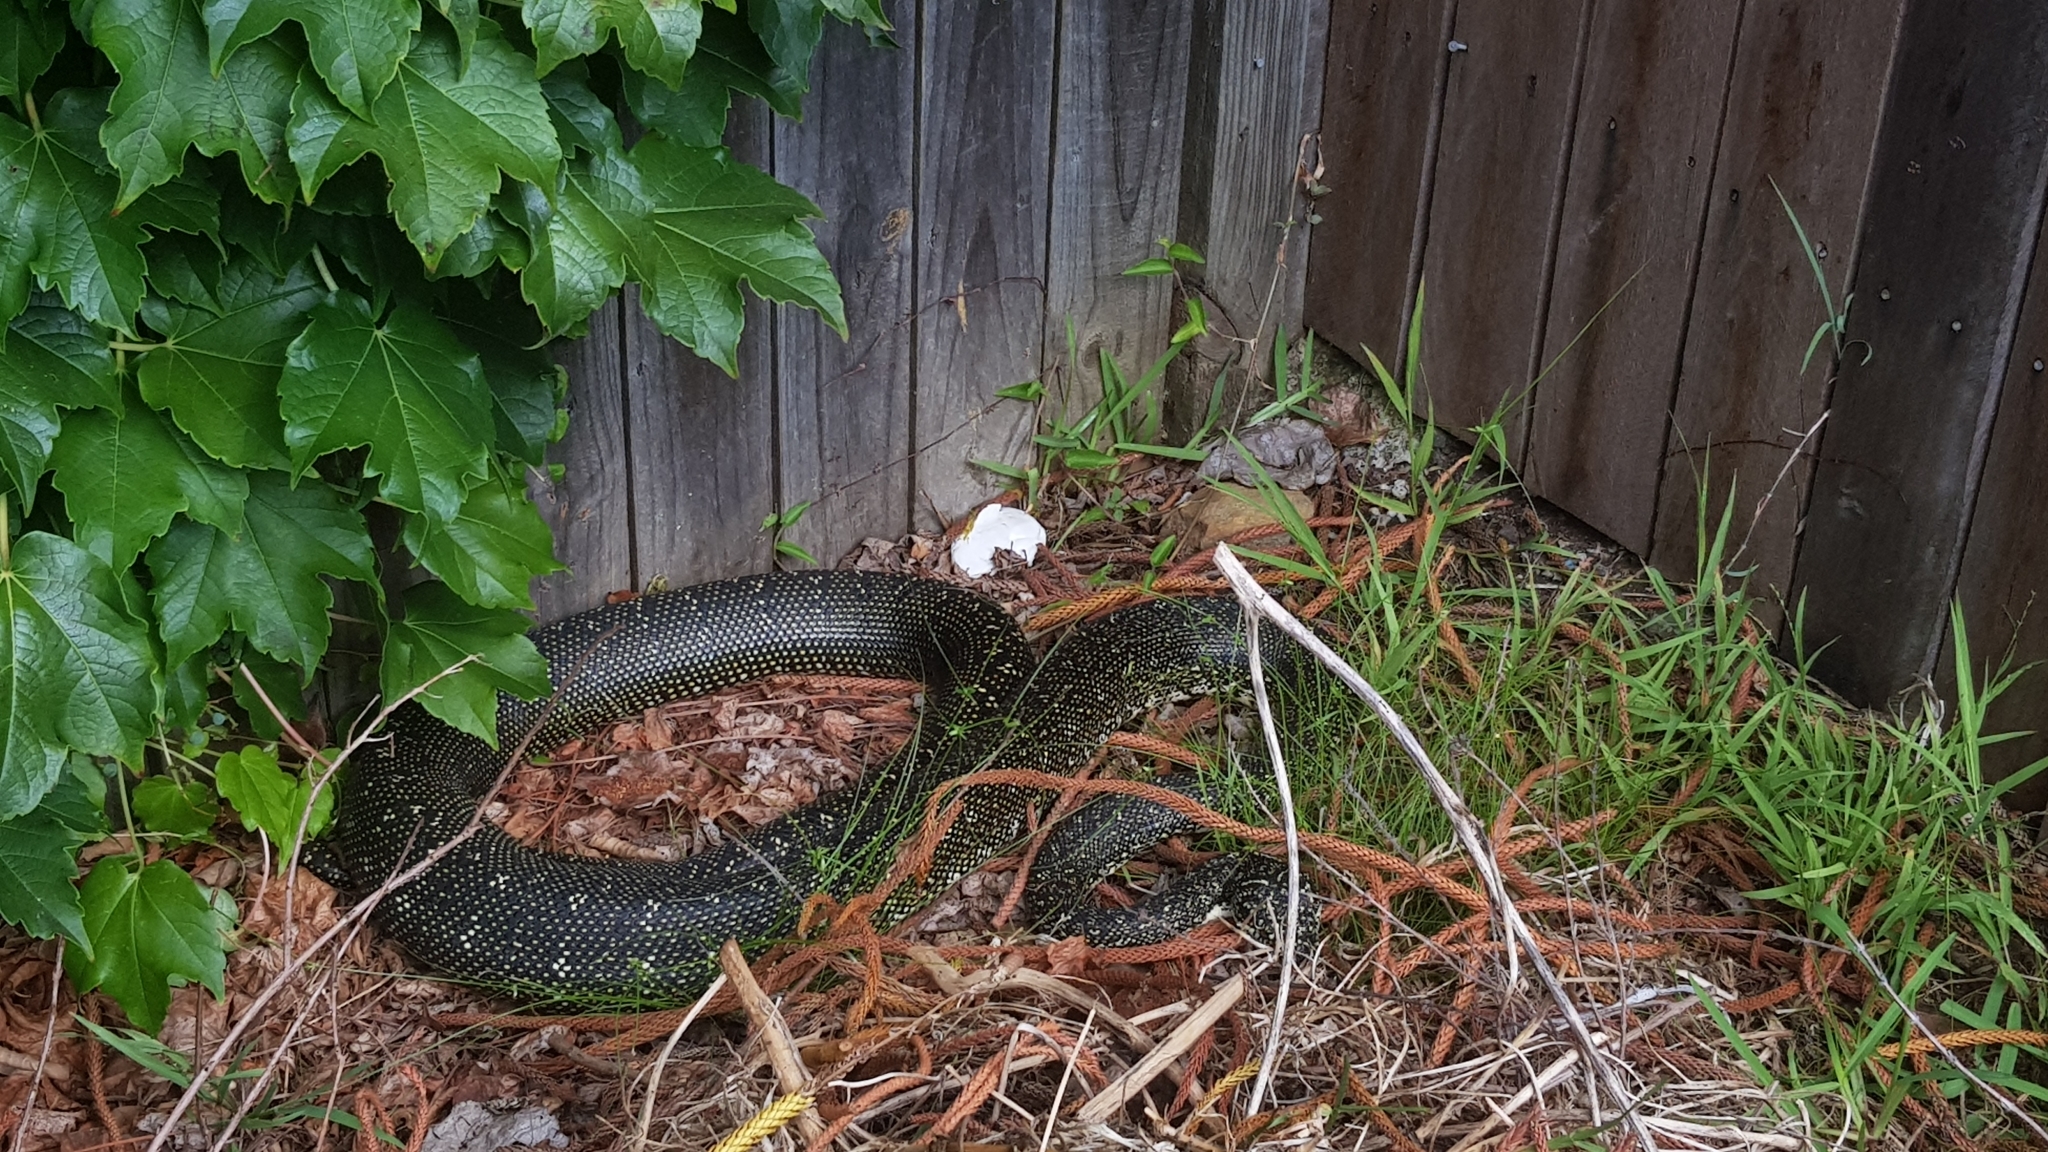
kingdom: Animalia
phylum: Chordata
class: Squamata
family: Pythonidae
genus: Morelia
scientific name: Morelia spilota
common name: Carpet python
